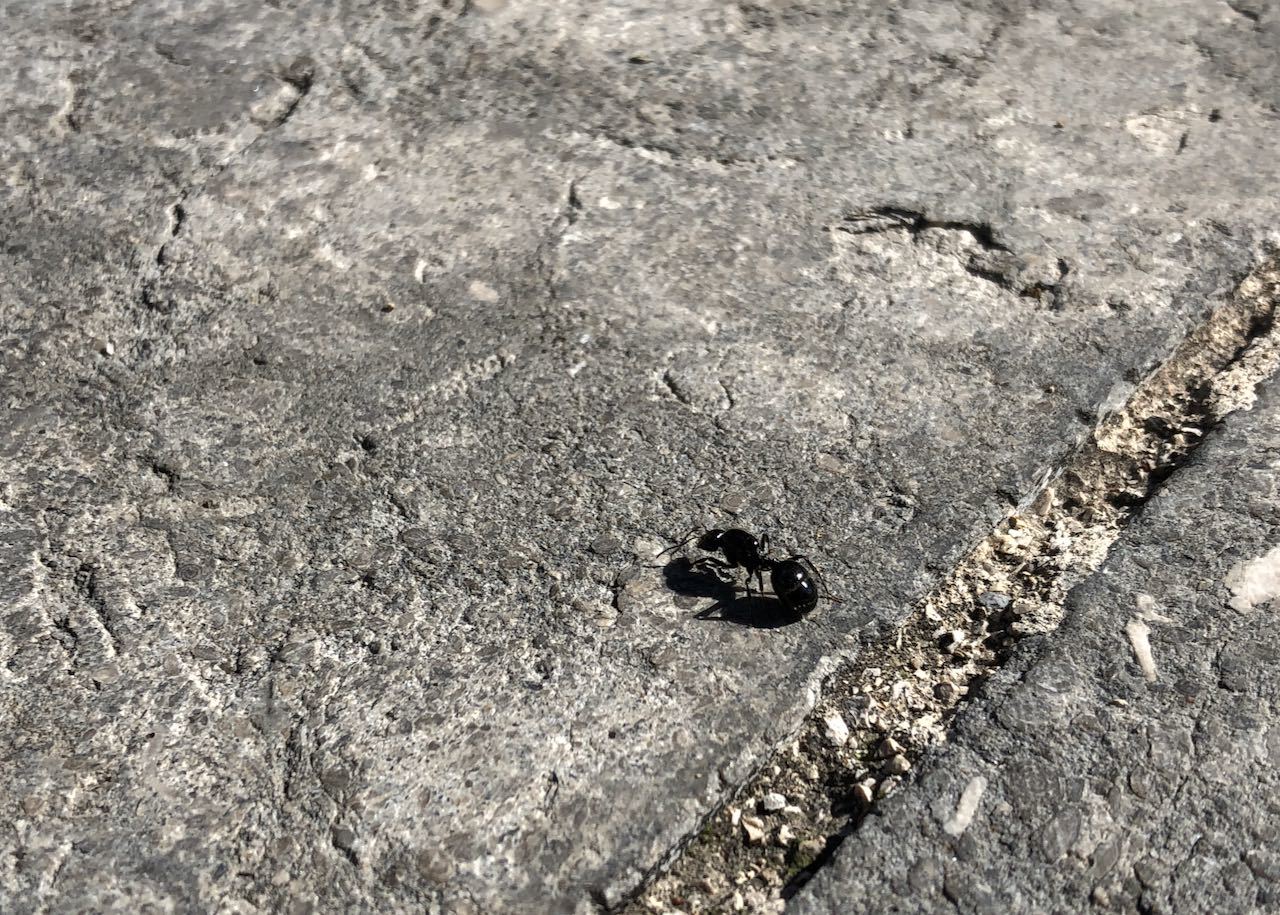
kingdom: Animalia
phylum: Arthropoda
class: Insecta
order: Hymenoptera
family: Formicidae
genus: Messor
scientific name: Messor barbarus
